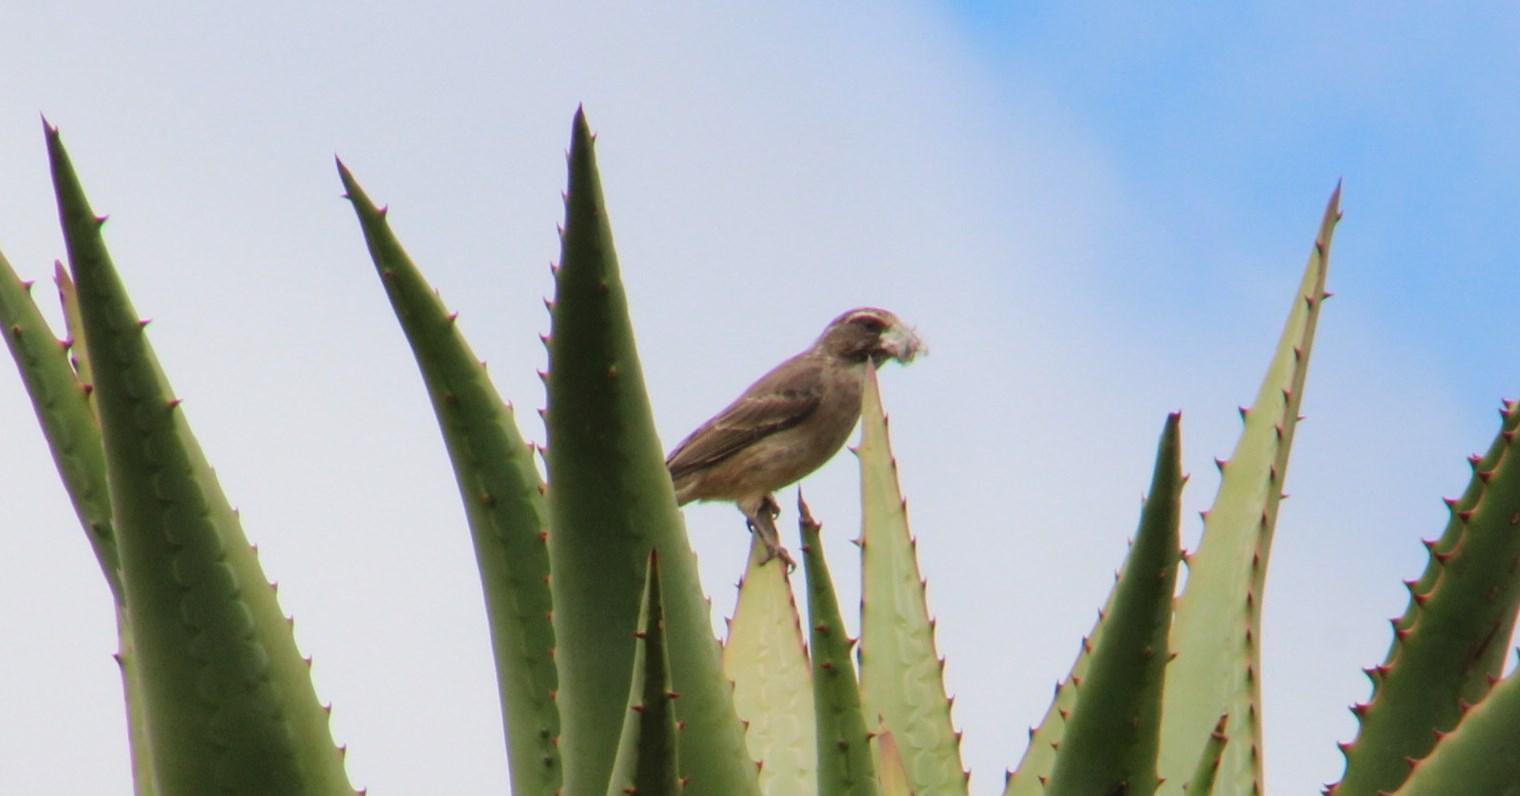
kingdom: Animalia
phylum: Chordata
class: Aves
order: Passeriformes
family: Fringillidae
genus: Crithagra
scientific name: Crithagra gularis
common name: Streaky-headed seedeater
